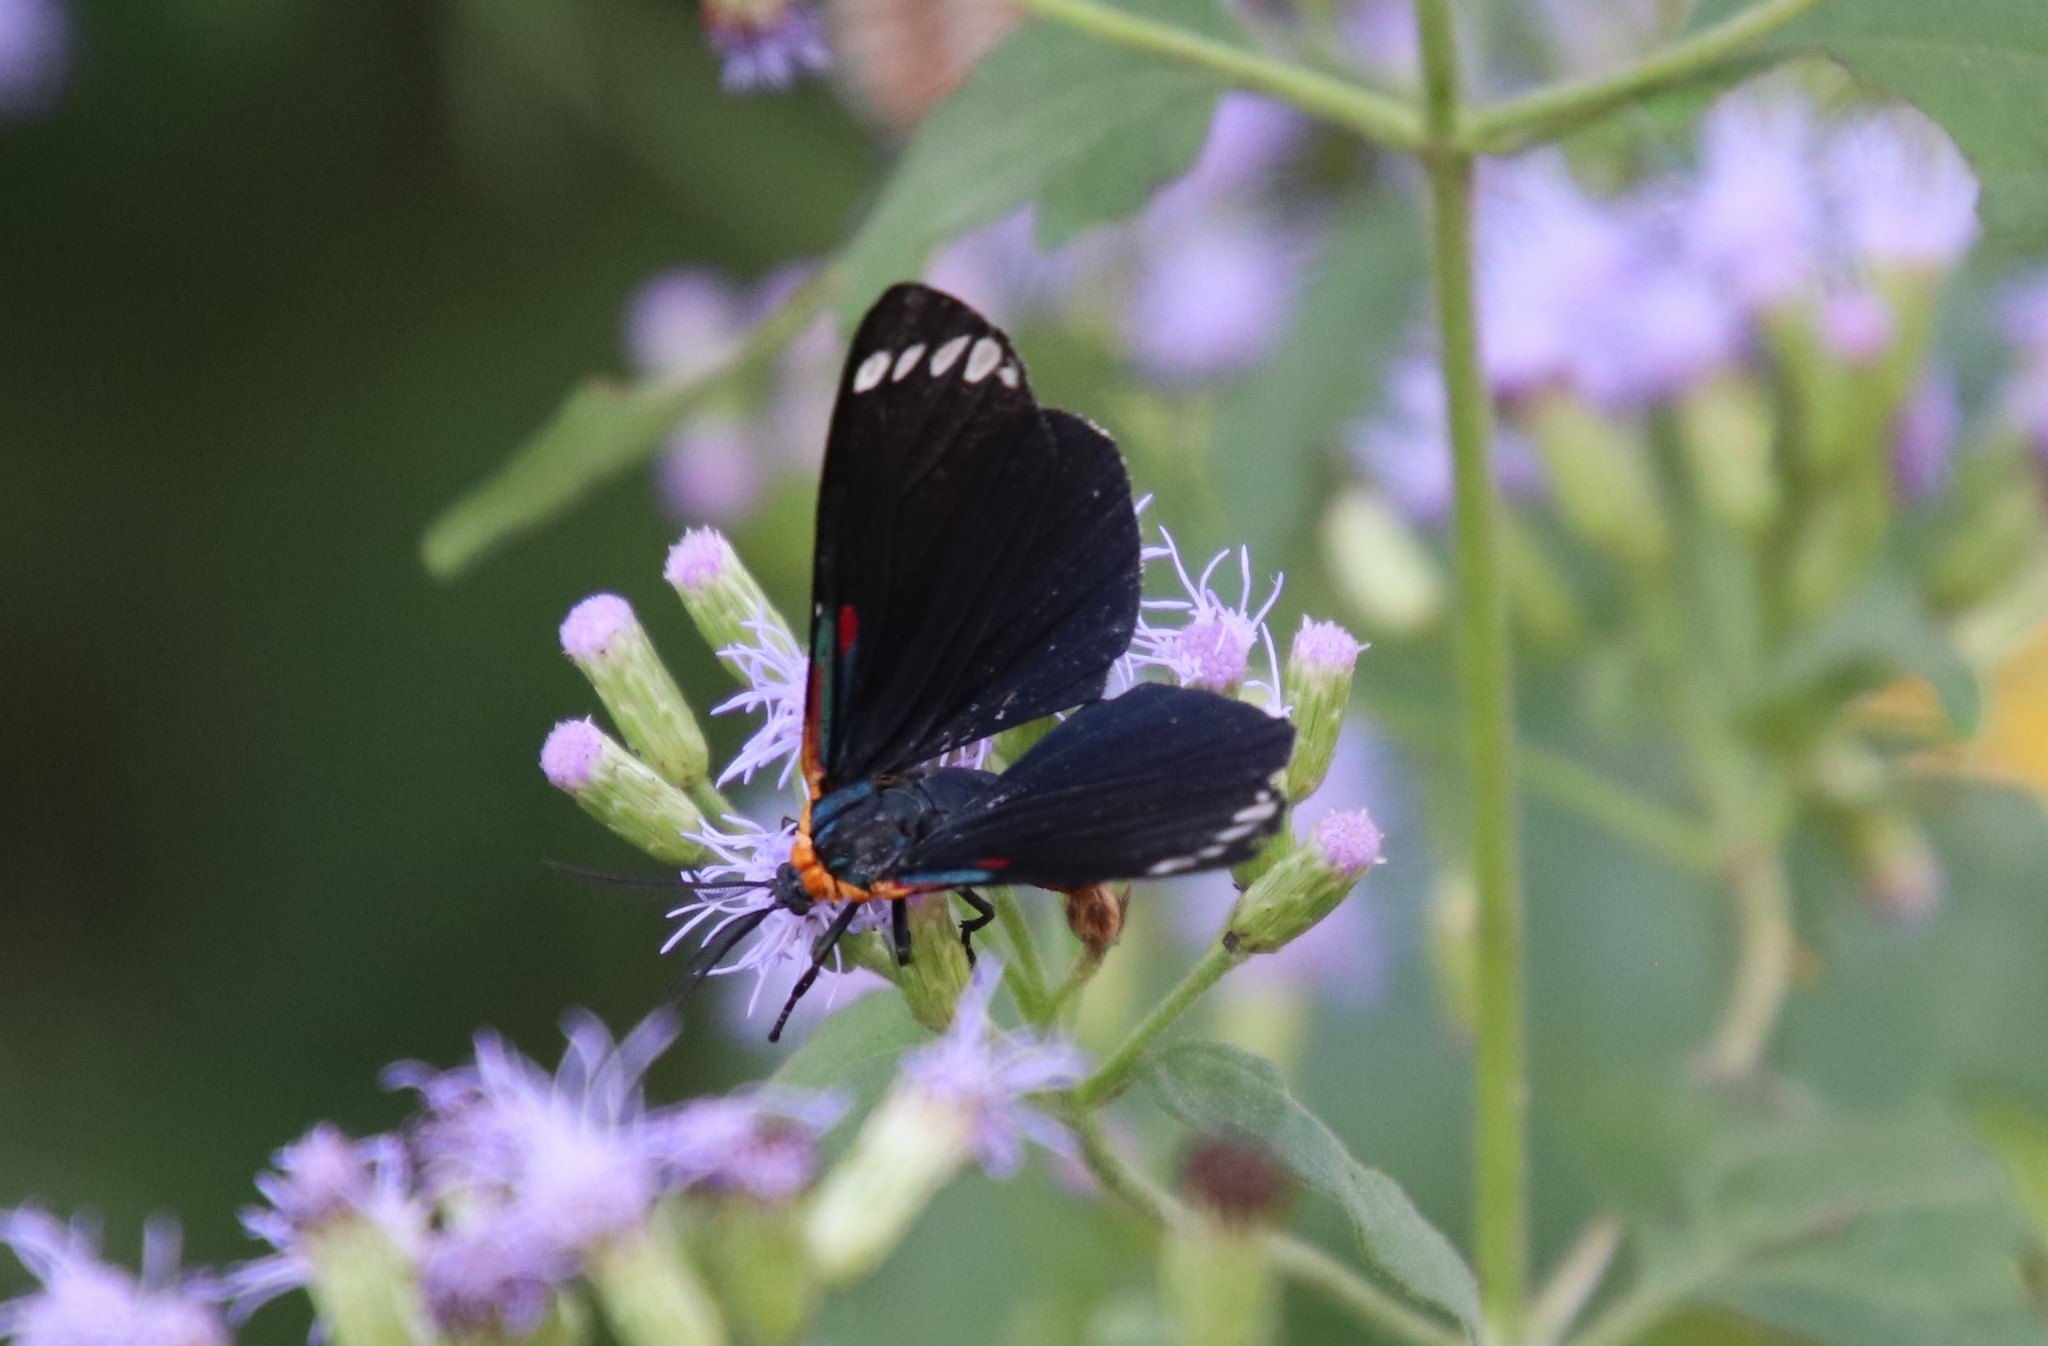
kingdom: Animalia
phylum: Arthropoda
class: Insecta
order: Lepidoptera
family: Erebidae
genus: Phaloesia
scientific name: Phaloesia saucia
